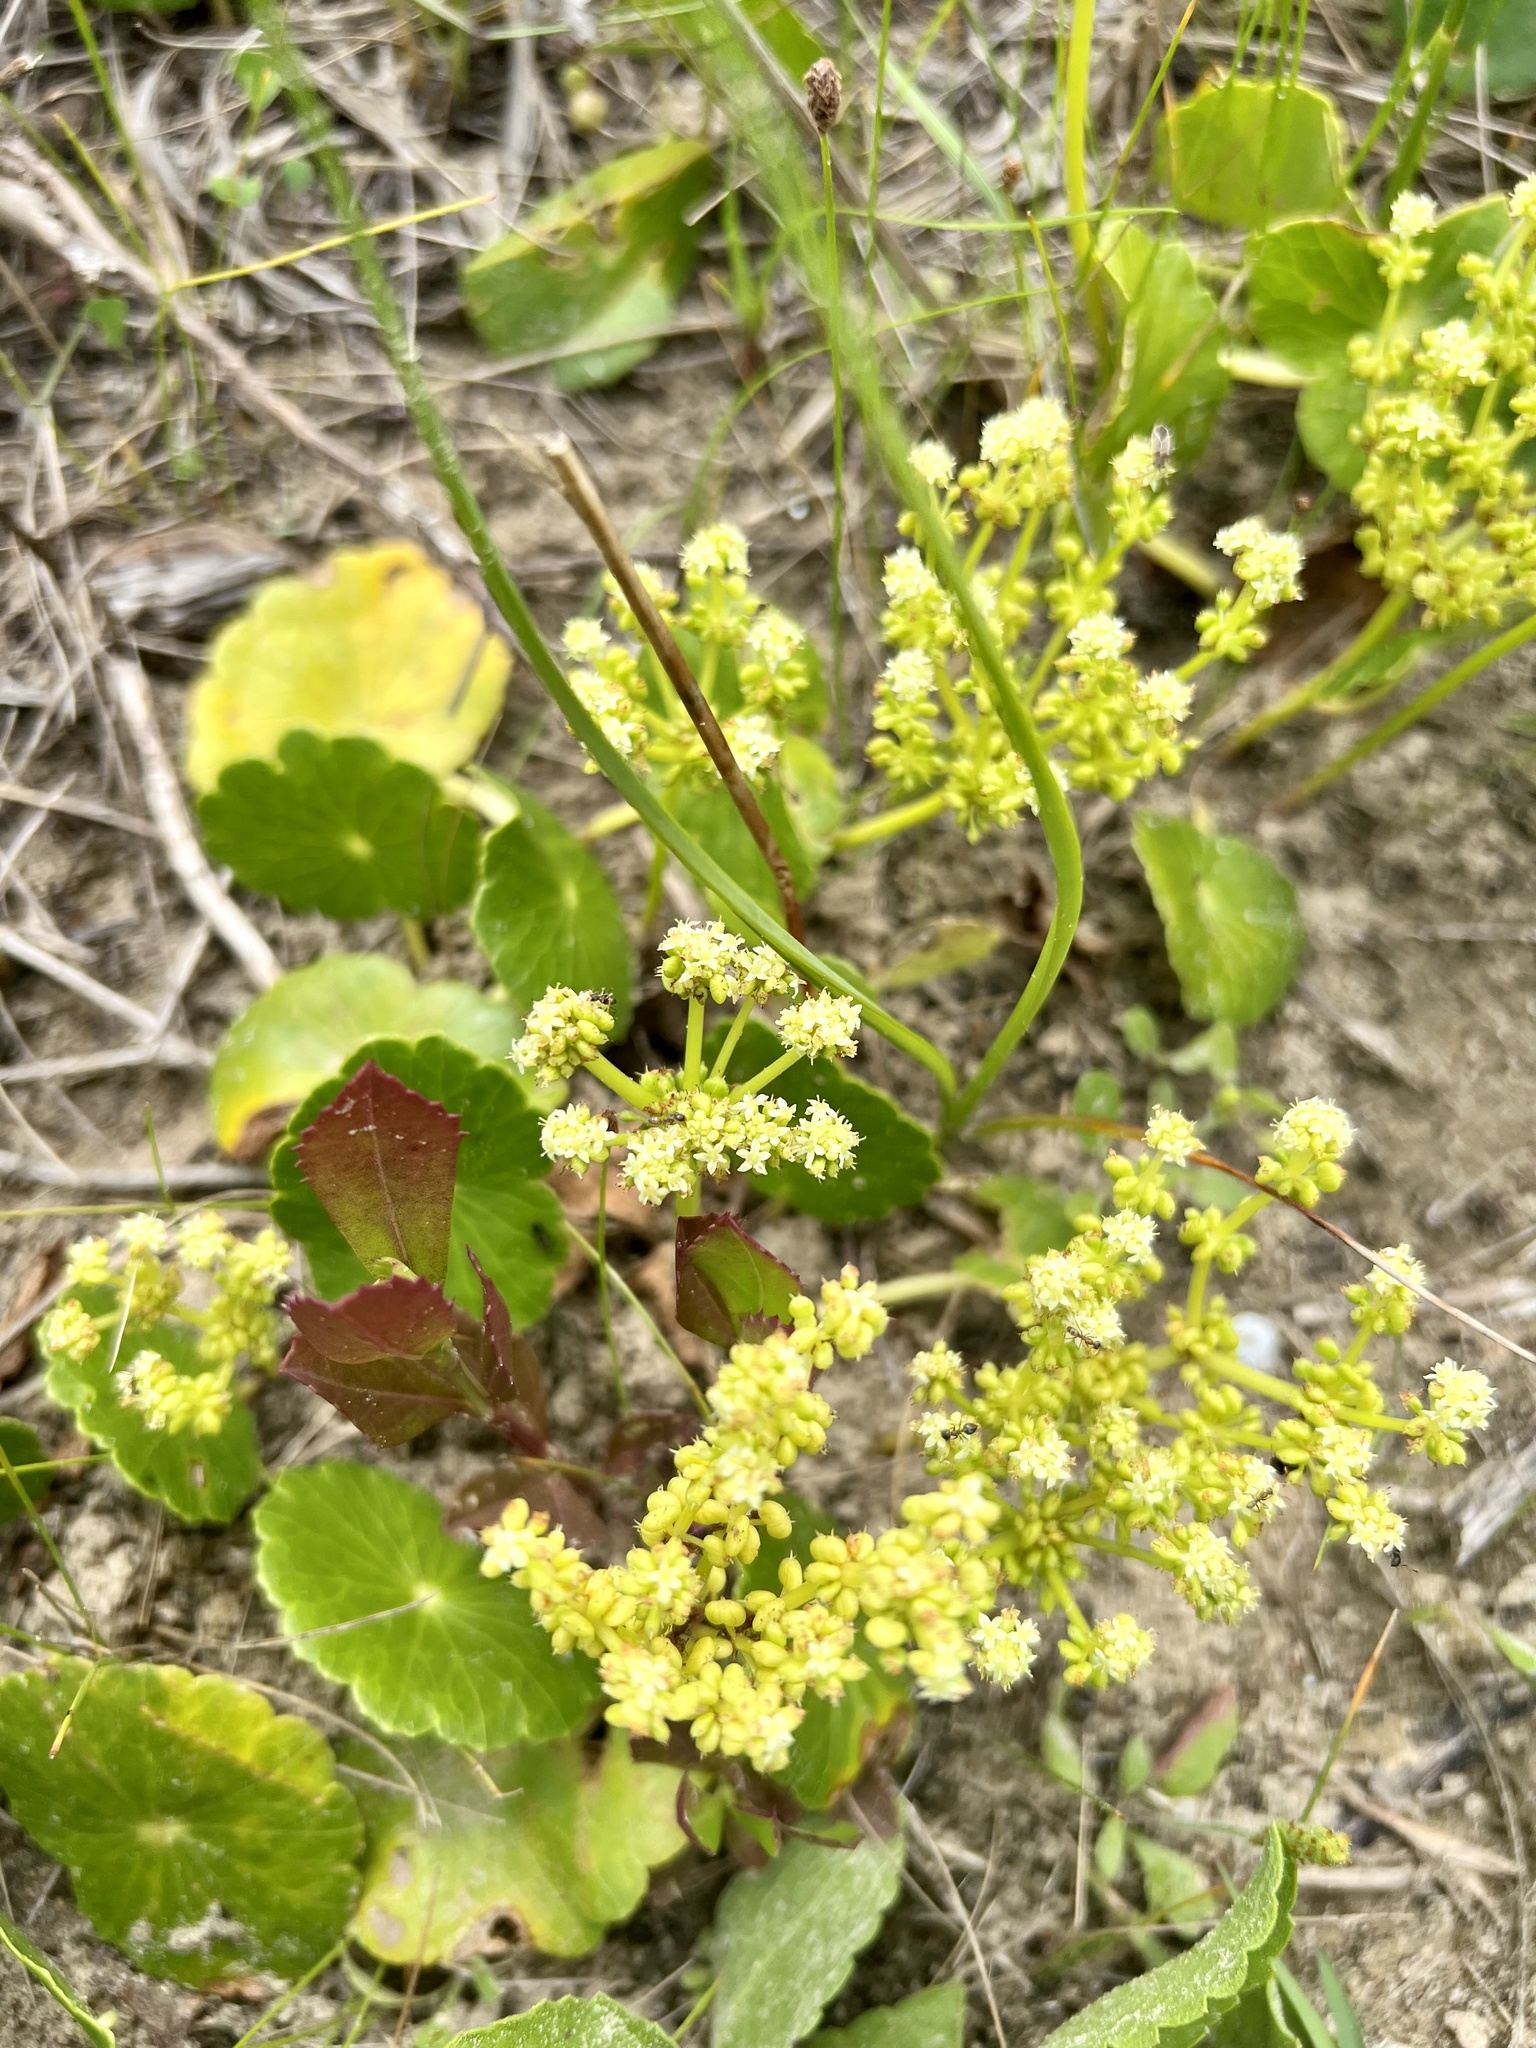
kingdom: Plantae
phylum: Tracheophyta
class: Magnoliopsida
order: Apiales
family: Araliaceae
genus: Hydrocotyle
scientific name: Hydrocotyle bonariensis
